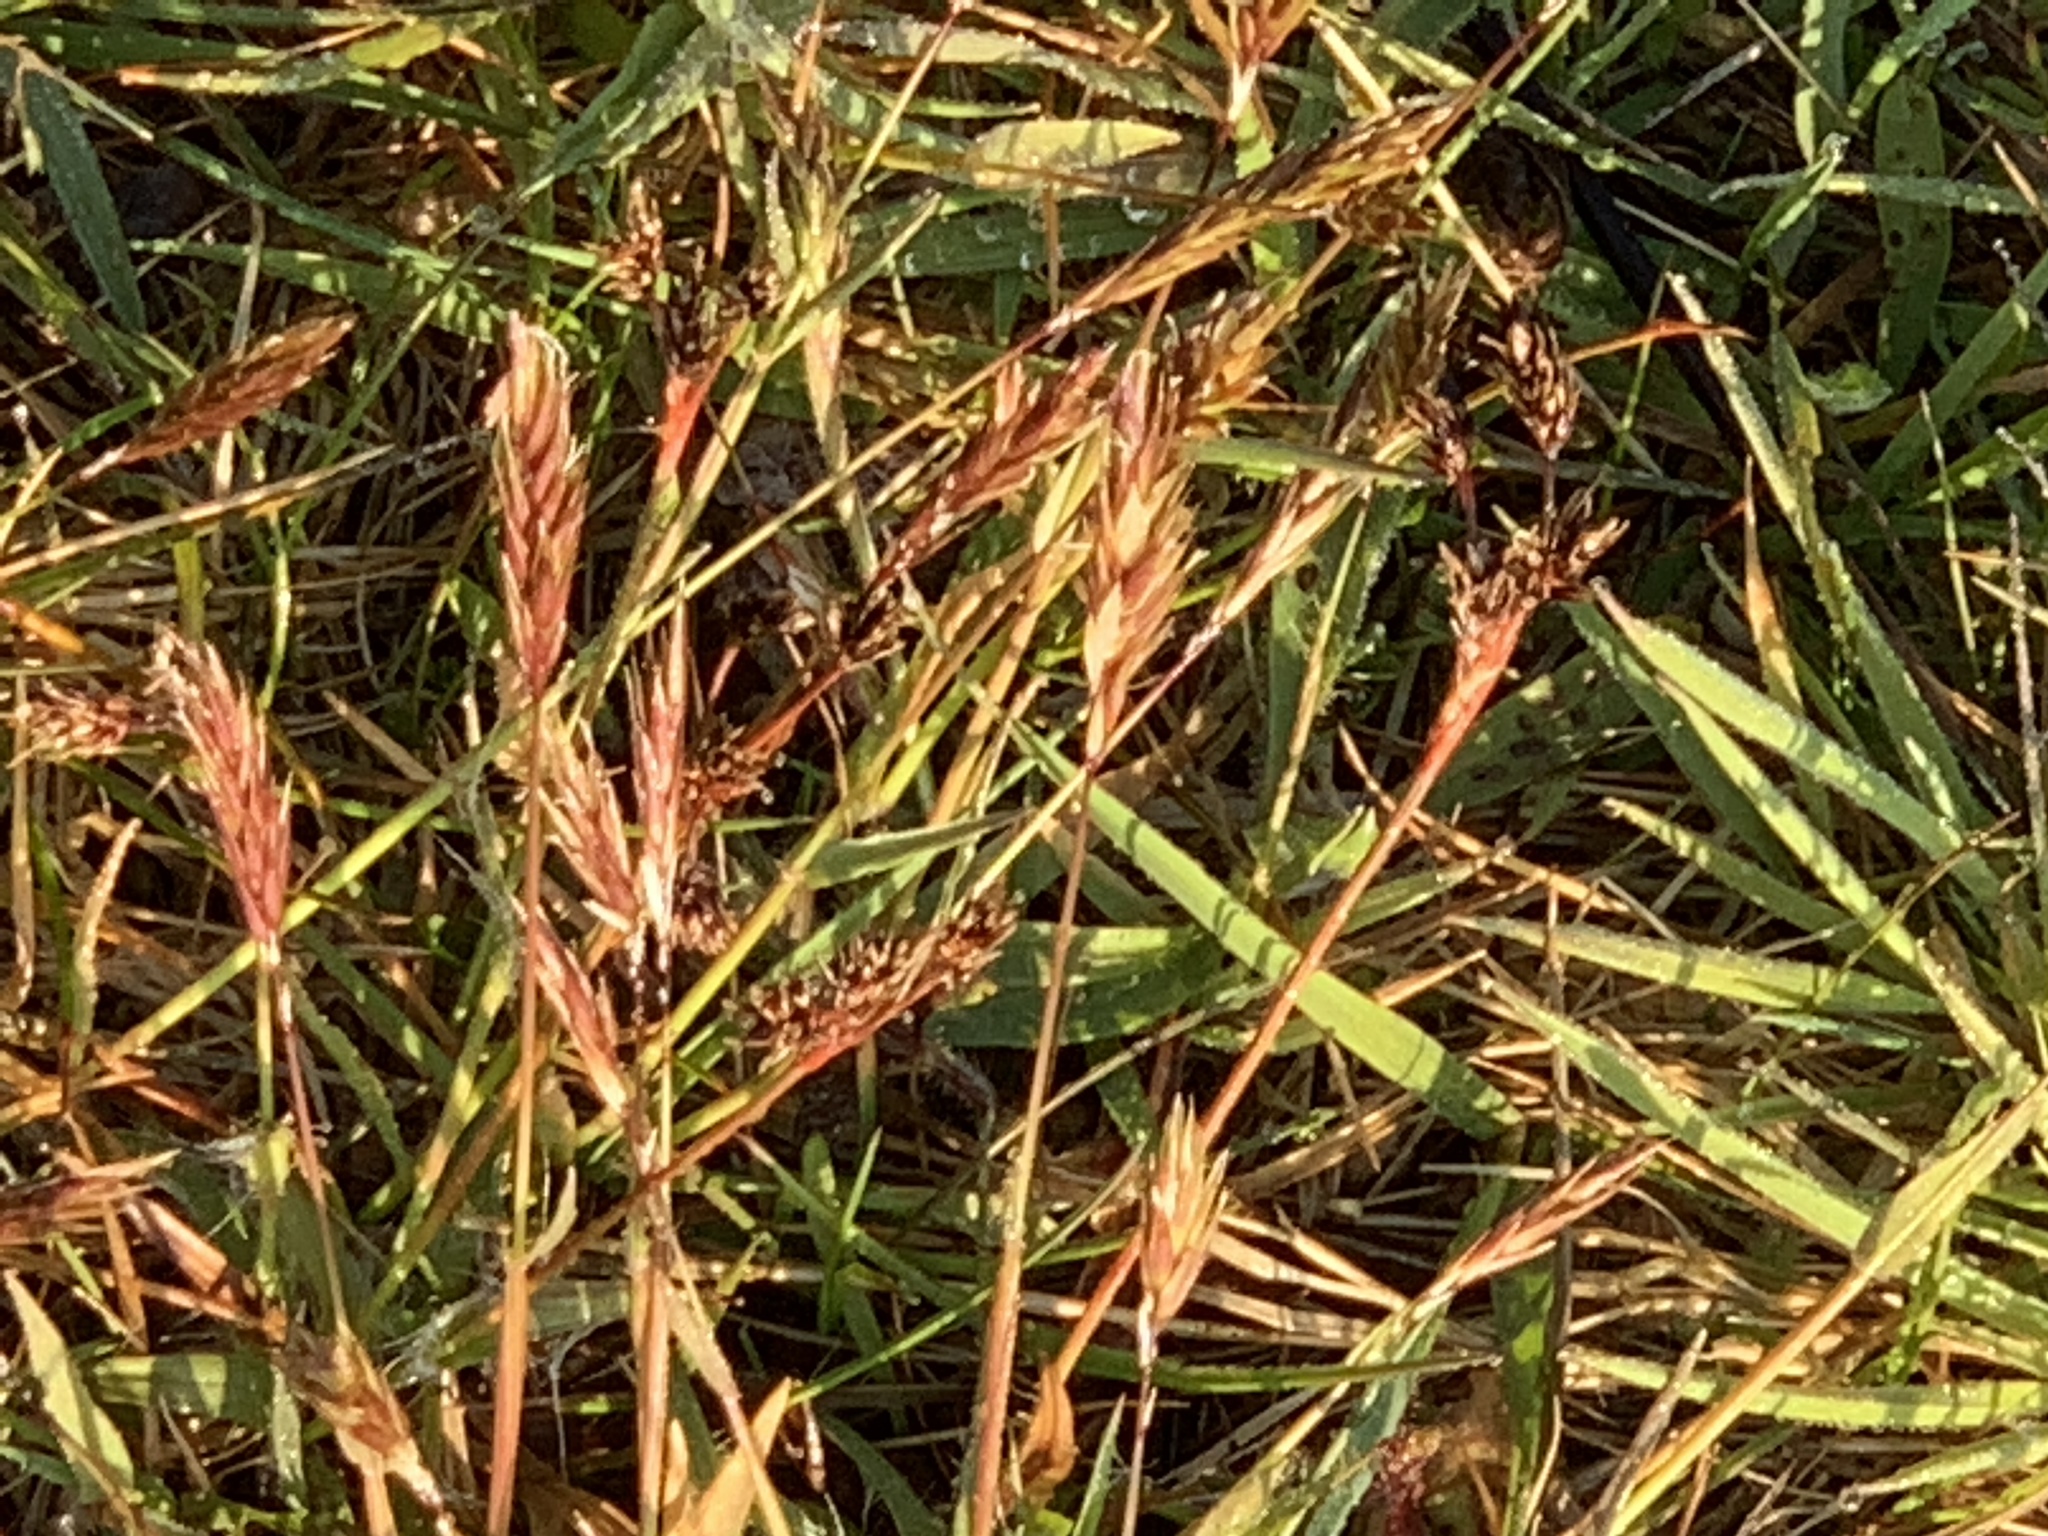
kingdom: Plantae
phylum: Tracheophyta
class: Liliopsida
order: Poales
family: Poaceae
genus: Anthoxanthum
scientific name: Anthoxanthum odoratum
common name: Sweet vernalgrass
